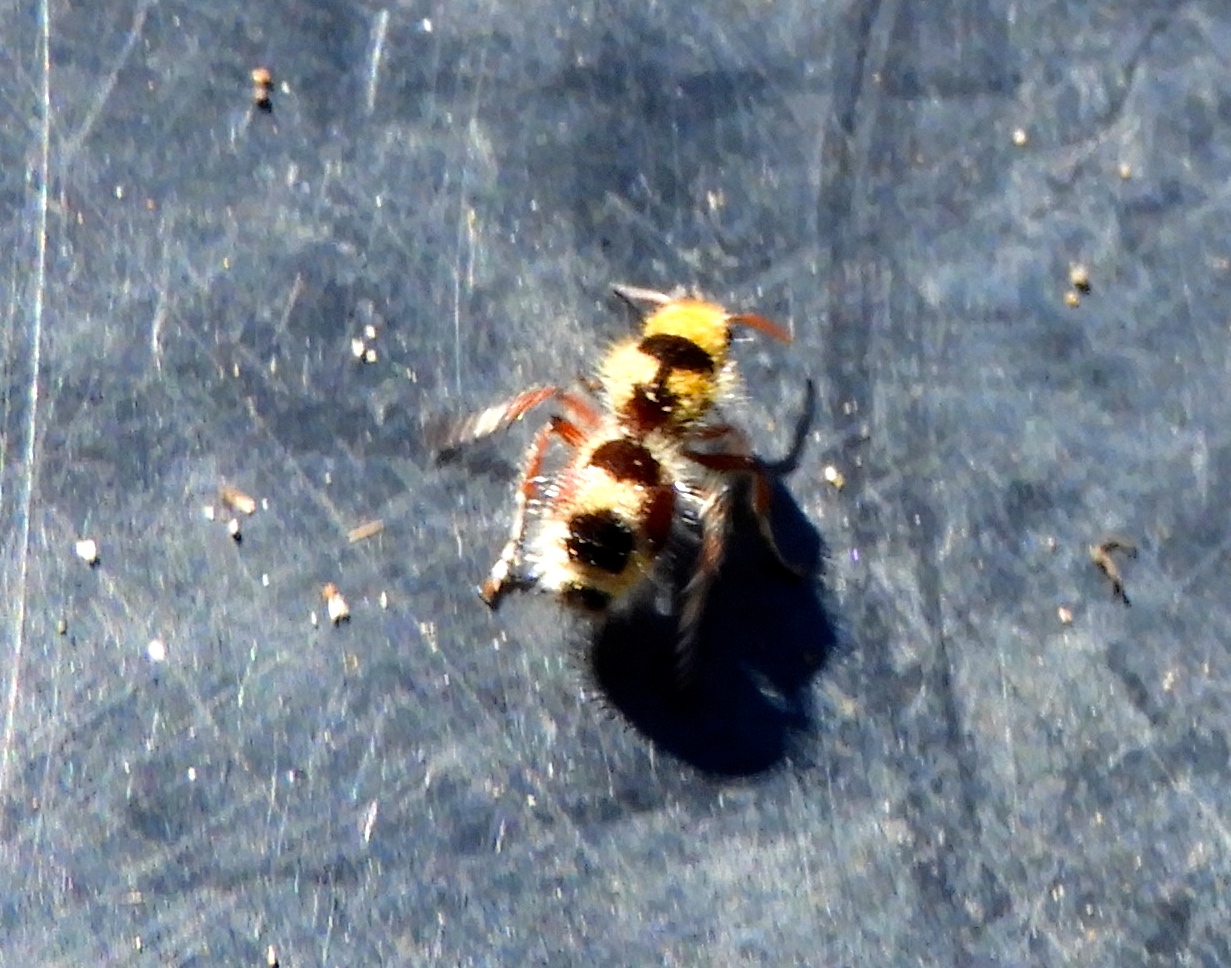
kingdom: Animalia
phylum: Arthropoda
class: Insecta
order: Hymenoptera
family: Mutillidae
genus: Dasymutilla
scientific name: Dasymutilla
